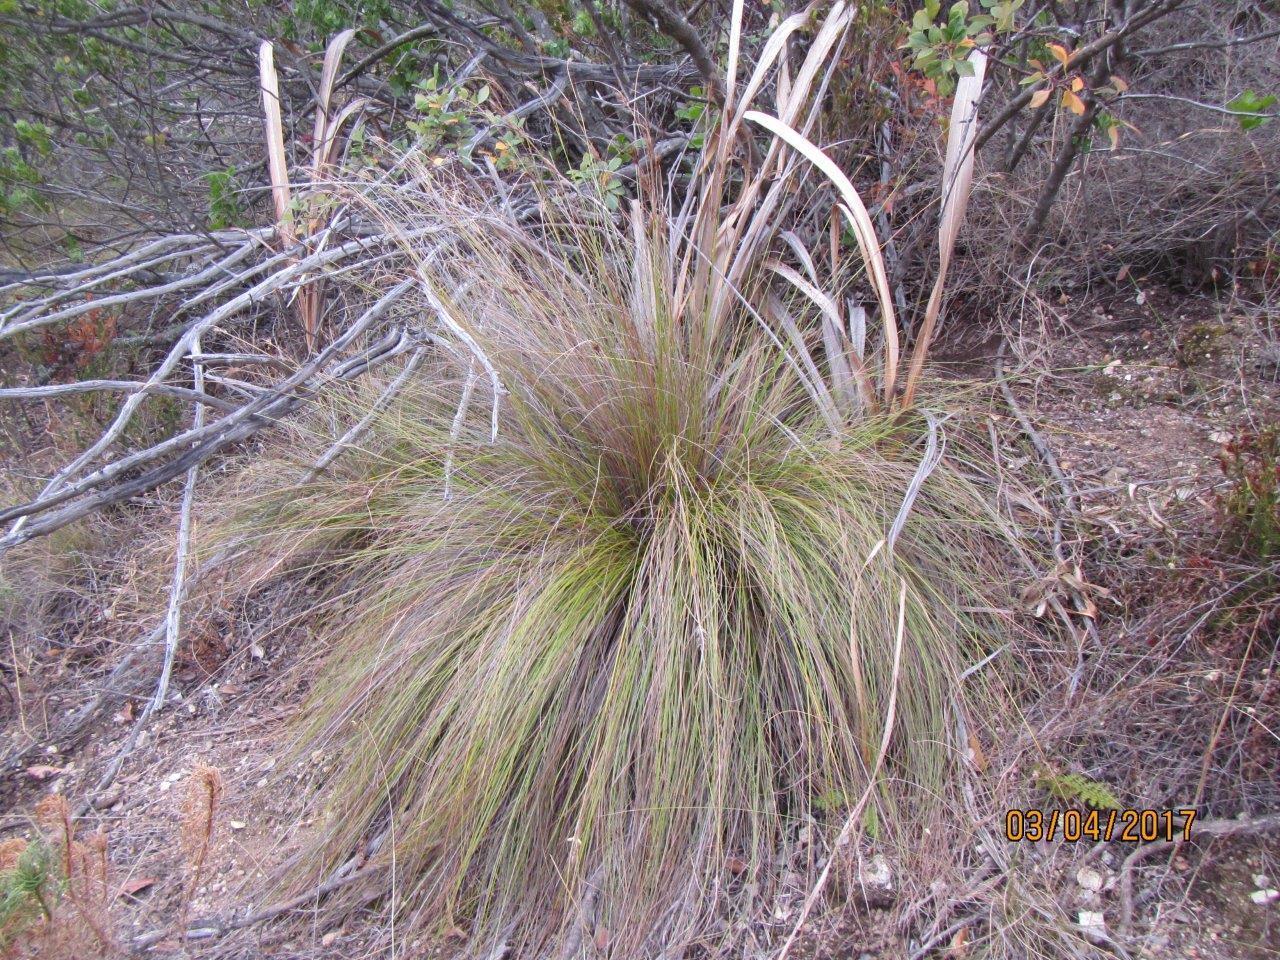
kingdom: Plantae
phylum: Tracheophyta
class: Liliopsida
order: Poales
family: Cyperaceae
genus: Schoenus
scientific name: Schoenus graminifolius
